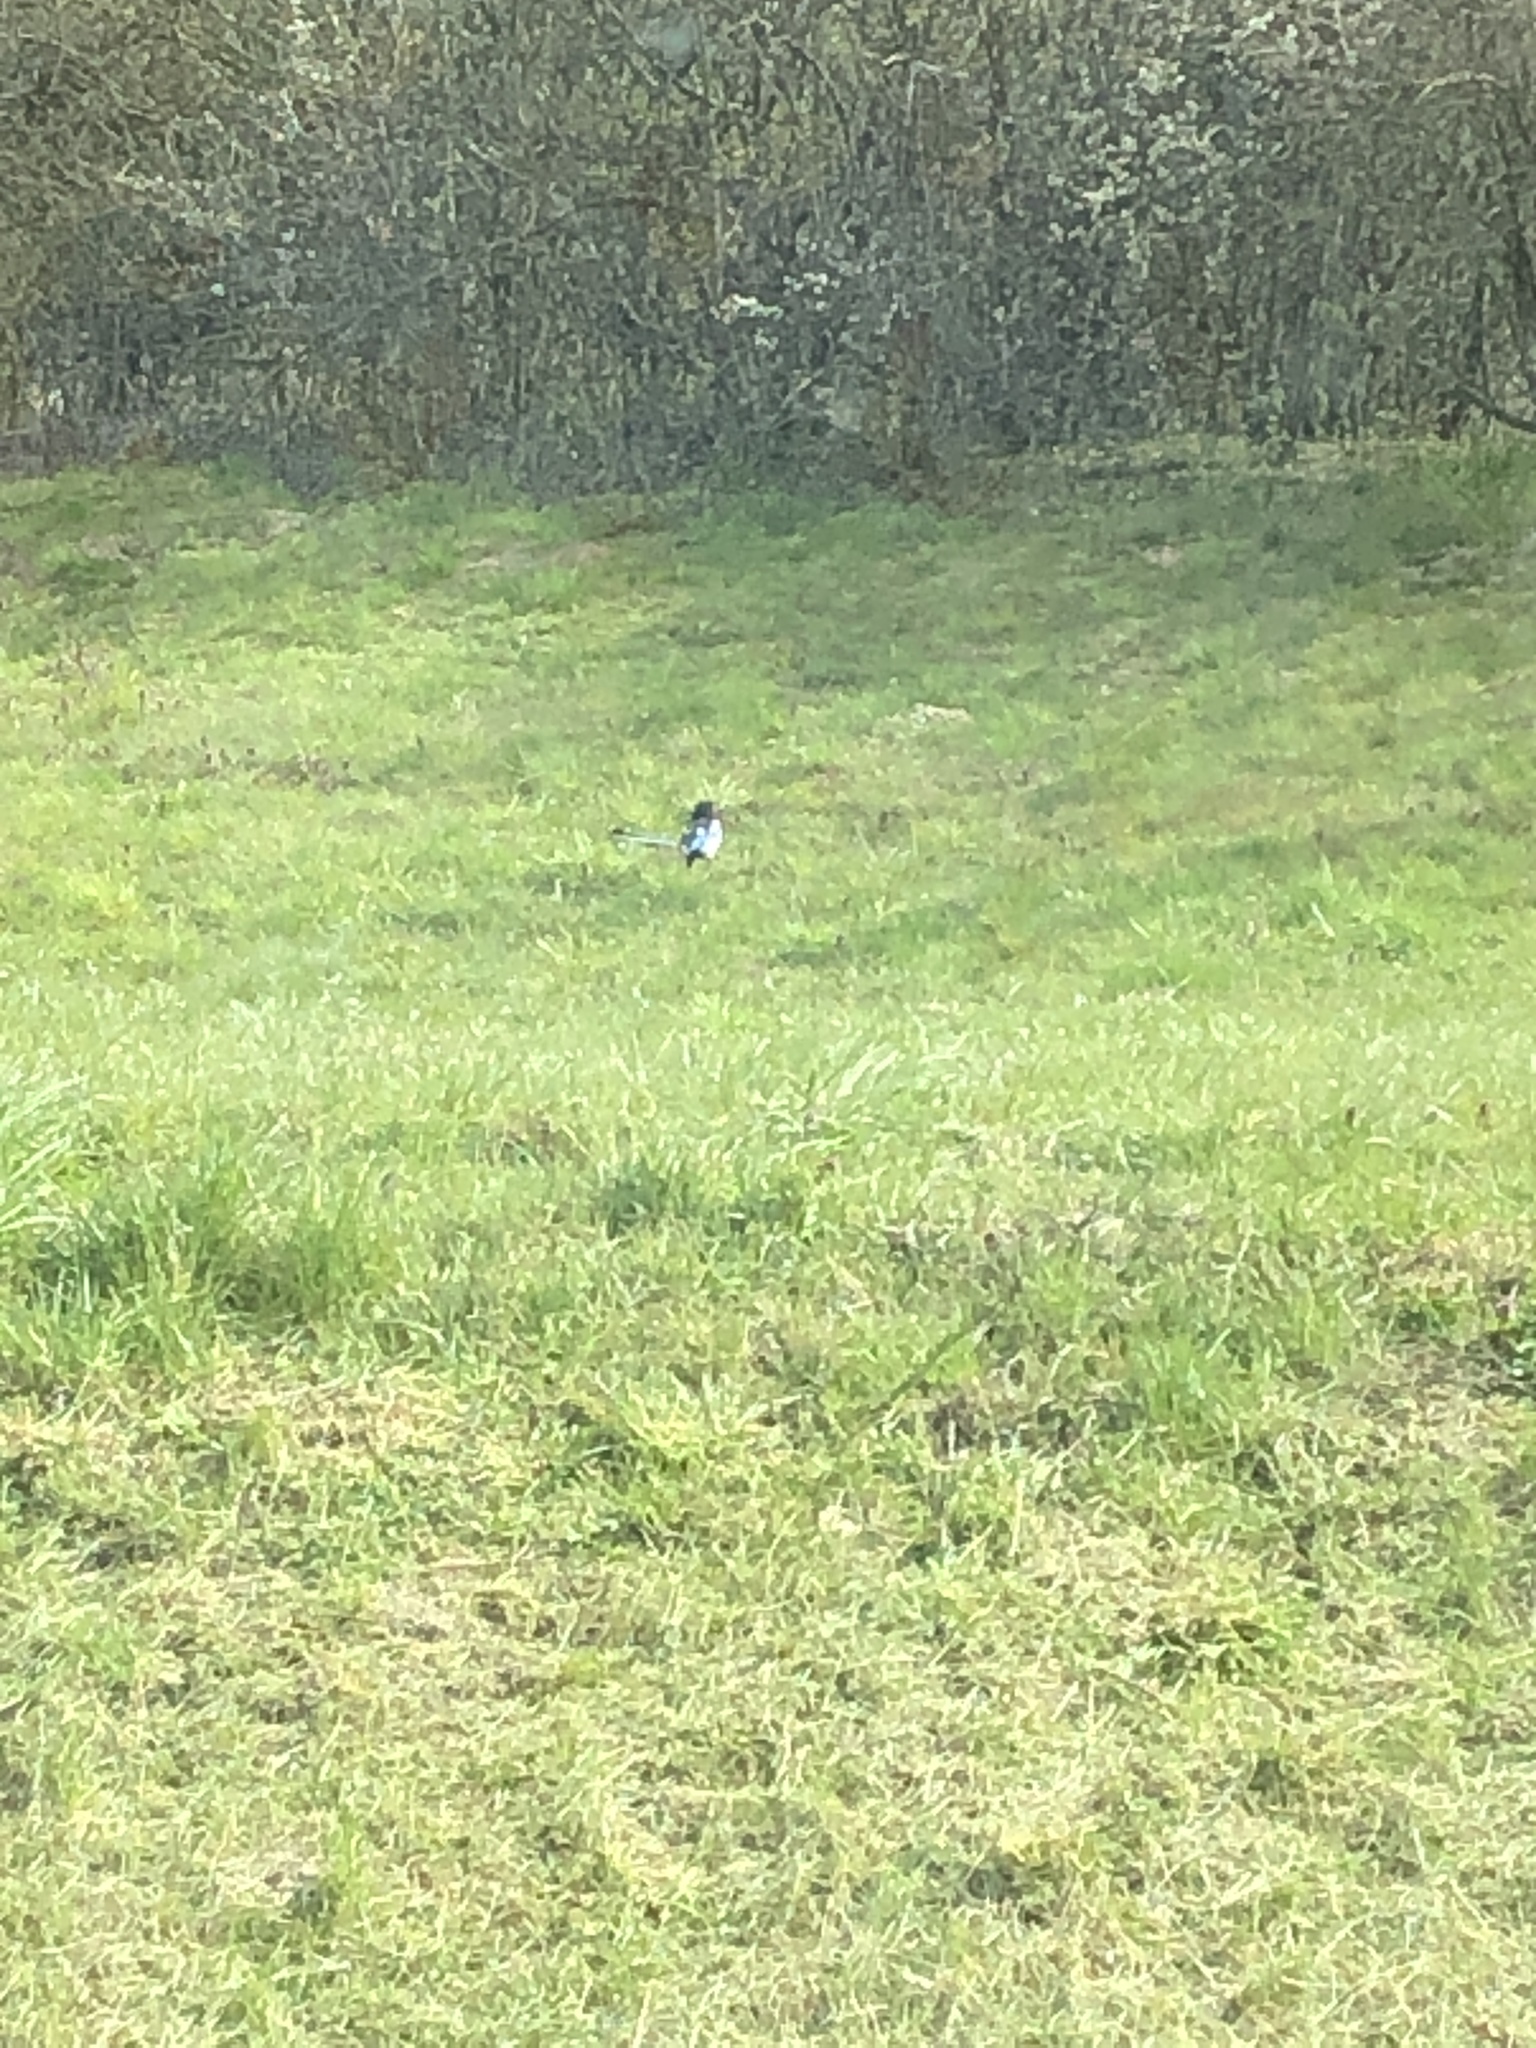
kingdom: Animalia
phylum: Chordata
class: Aves
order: Passeriformes
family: Corvidae
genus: Pica
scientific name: Pica pica
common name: Eurasian magpie
